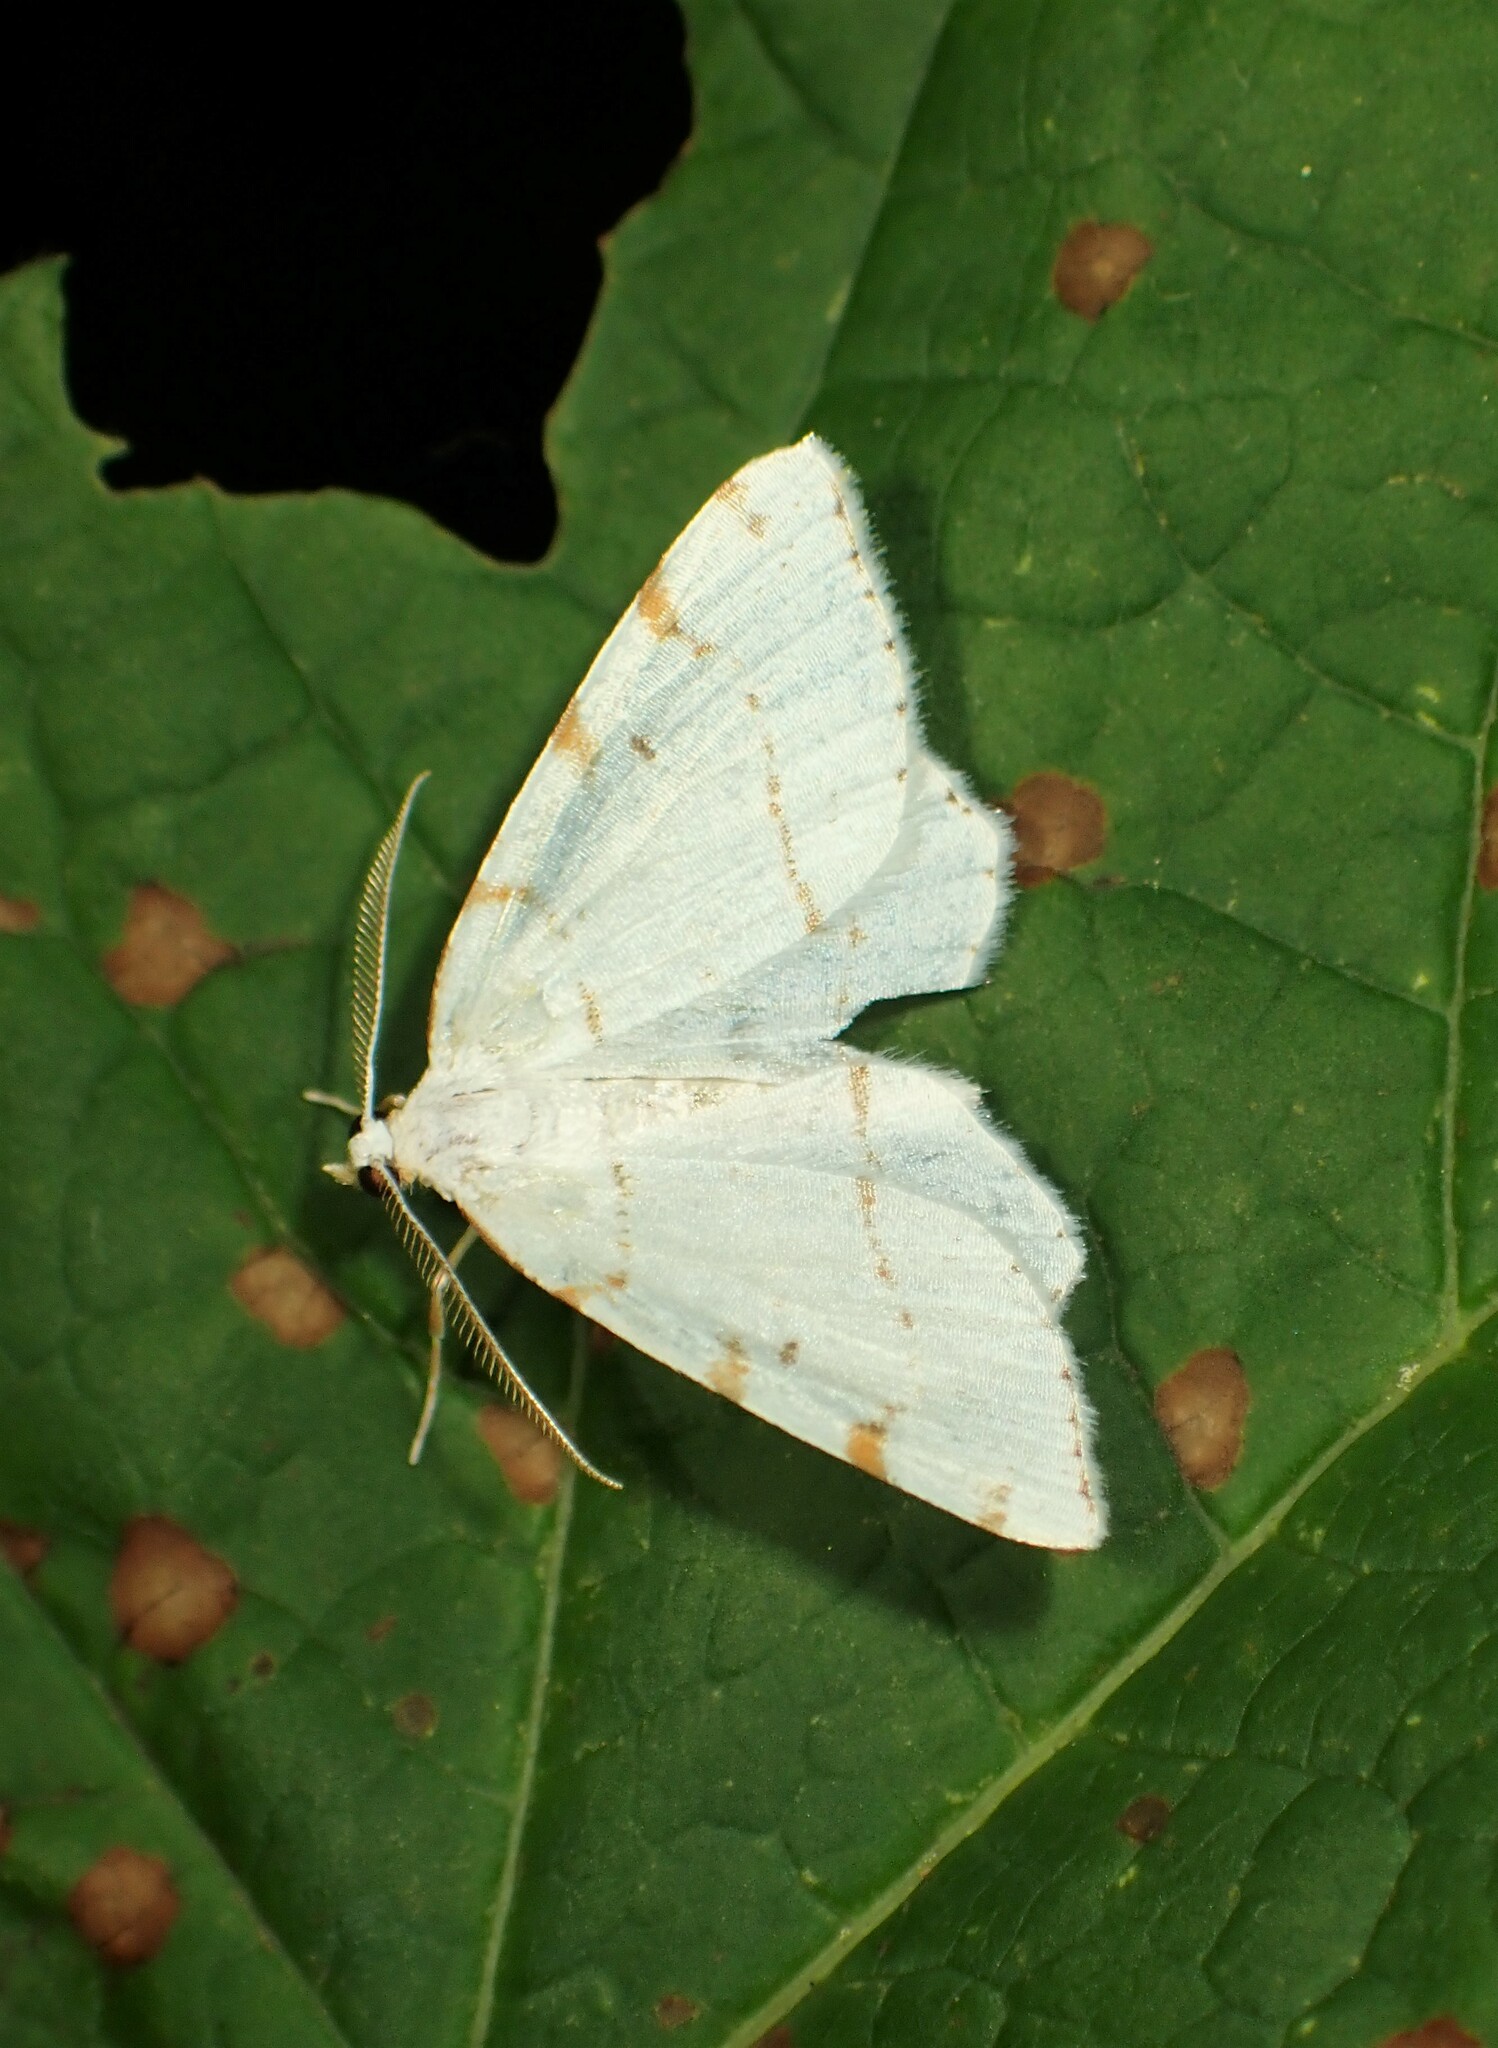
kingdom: Animalia
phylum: Arthropoda
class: Insecta
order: Lepidoptera
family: Geometridae
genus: Macaria
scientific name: Macaria pustularia
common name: Lesser maple spanworm moth
